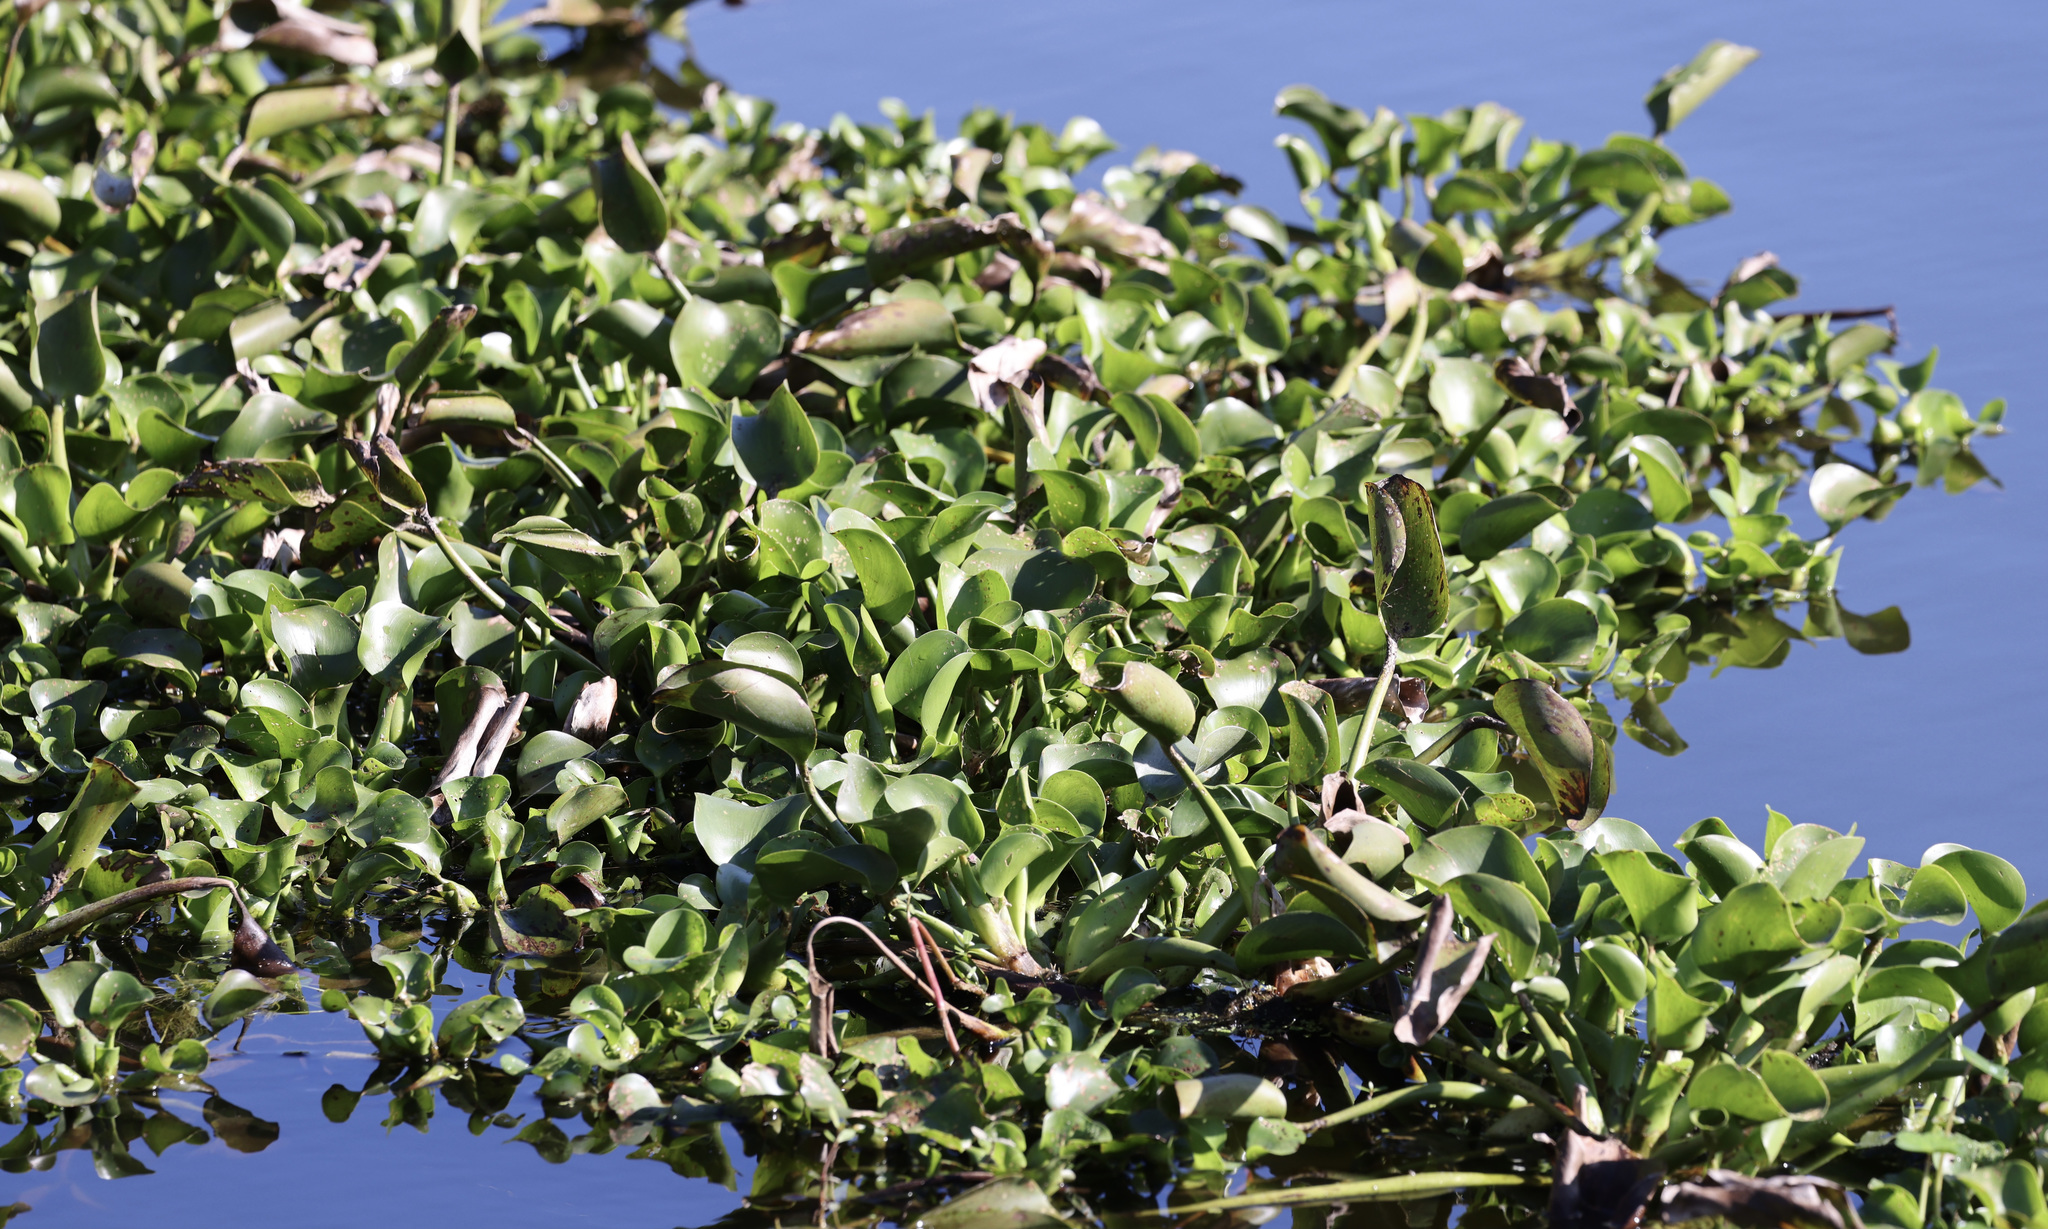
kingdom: Plantae
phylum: Tracheophyta
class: Liliopsida
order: Commelinales
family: Pontederiaceae
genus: Pontederia
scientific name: Pontederia crassipes
